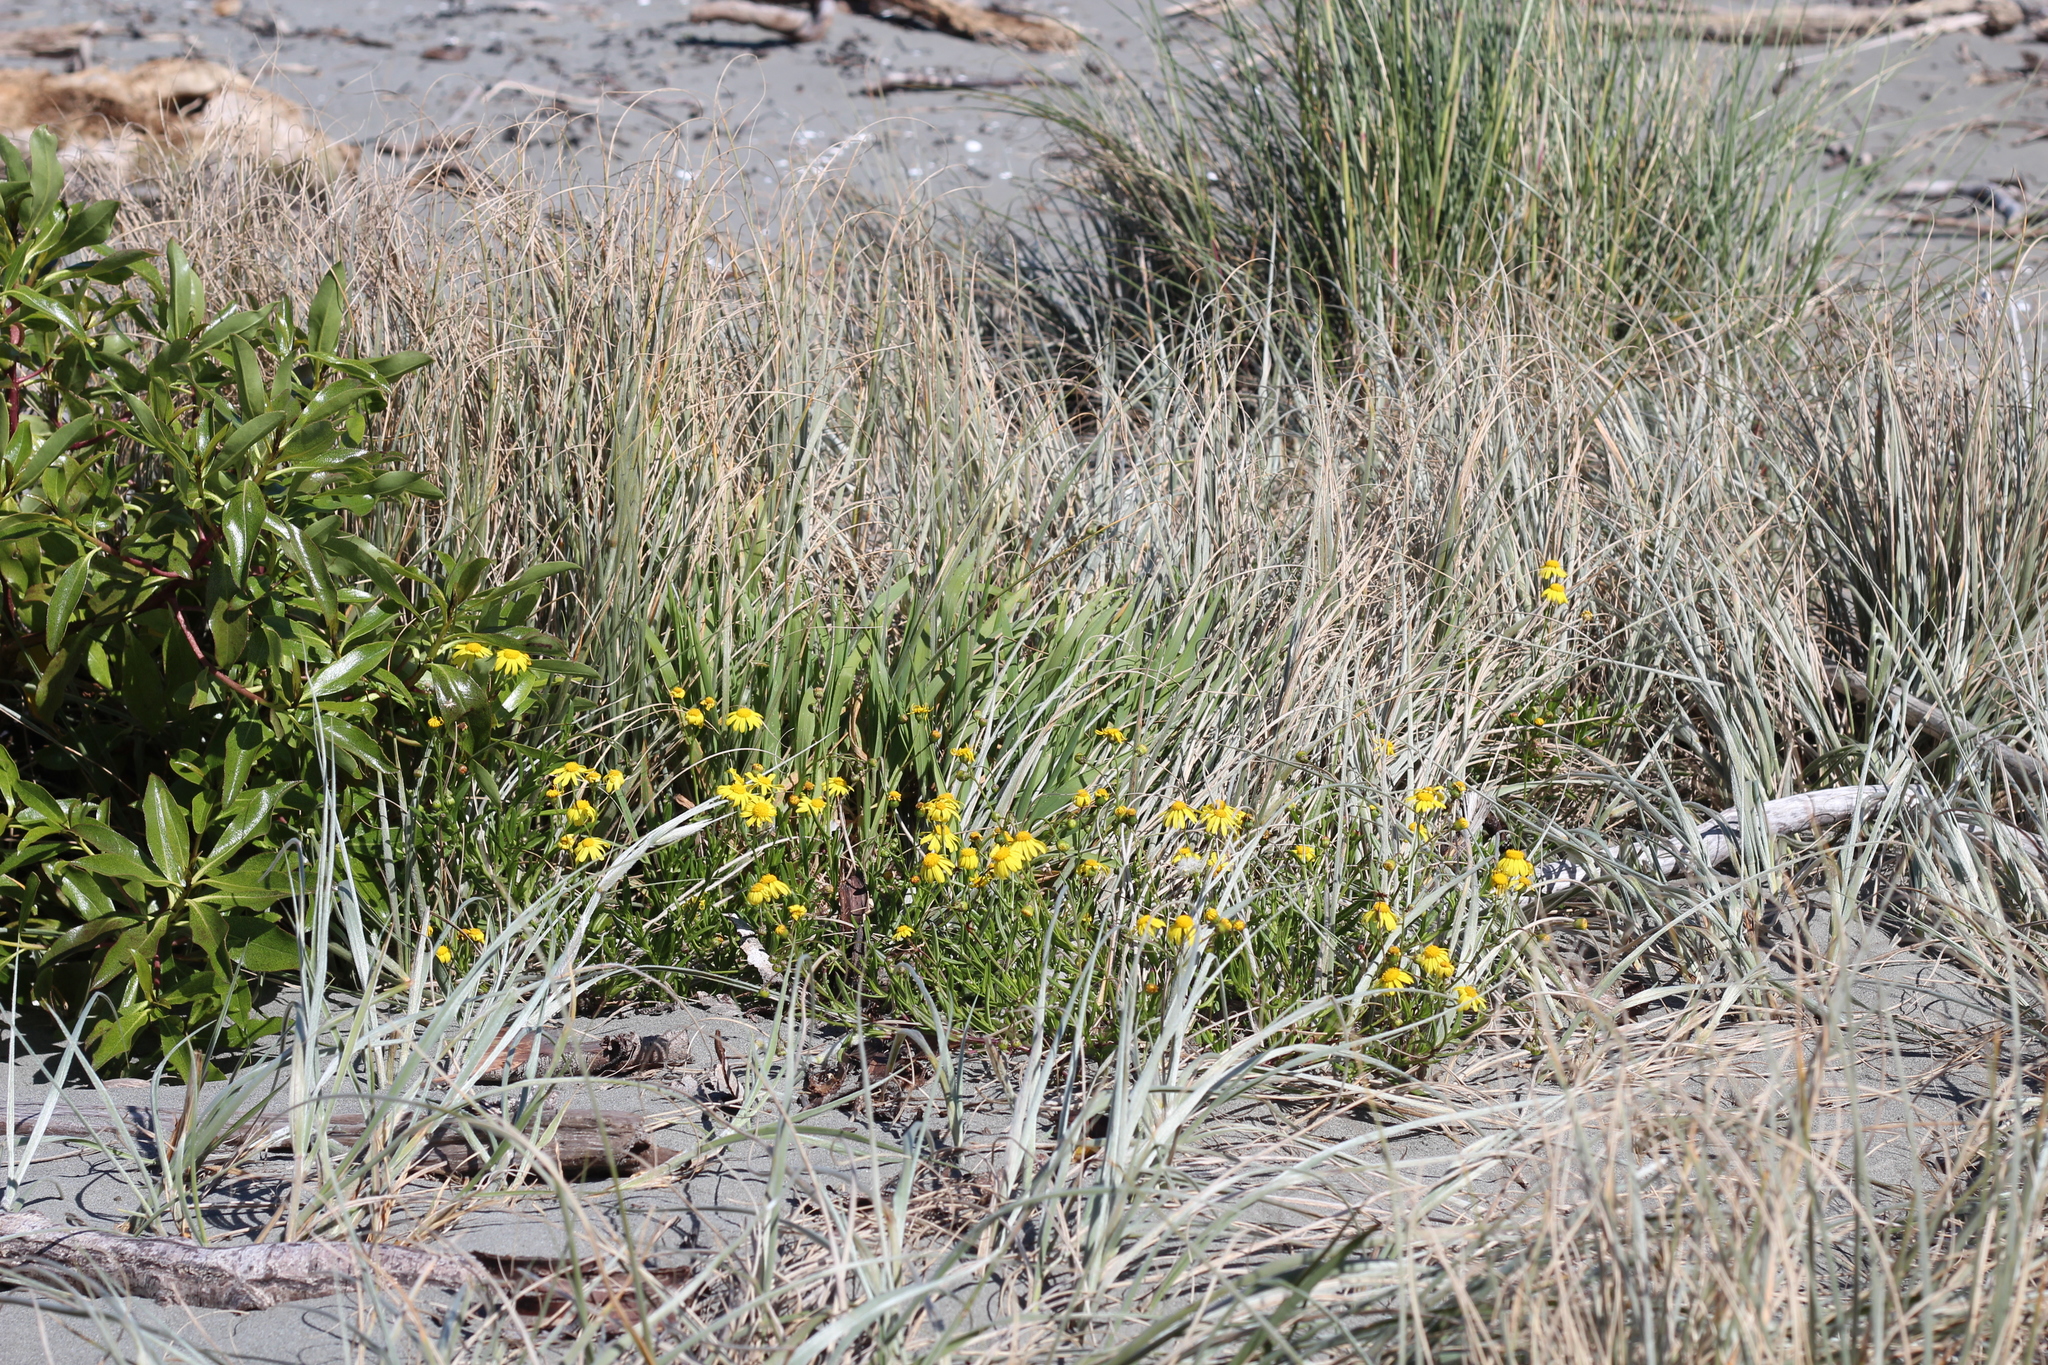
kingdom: Plantae
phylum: Tracheophyta
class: Magnoliopsida
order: Asterales
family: Asteraceae
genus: Senecio
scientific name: Senecio skirrhodon
